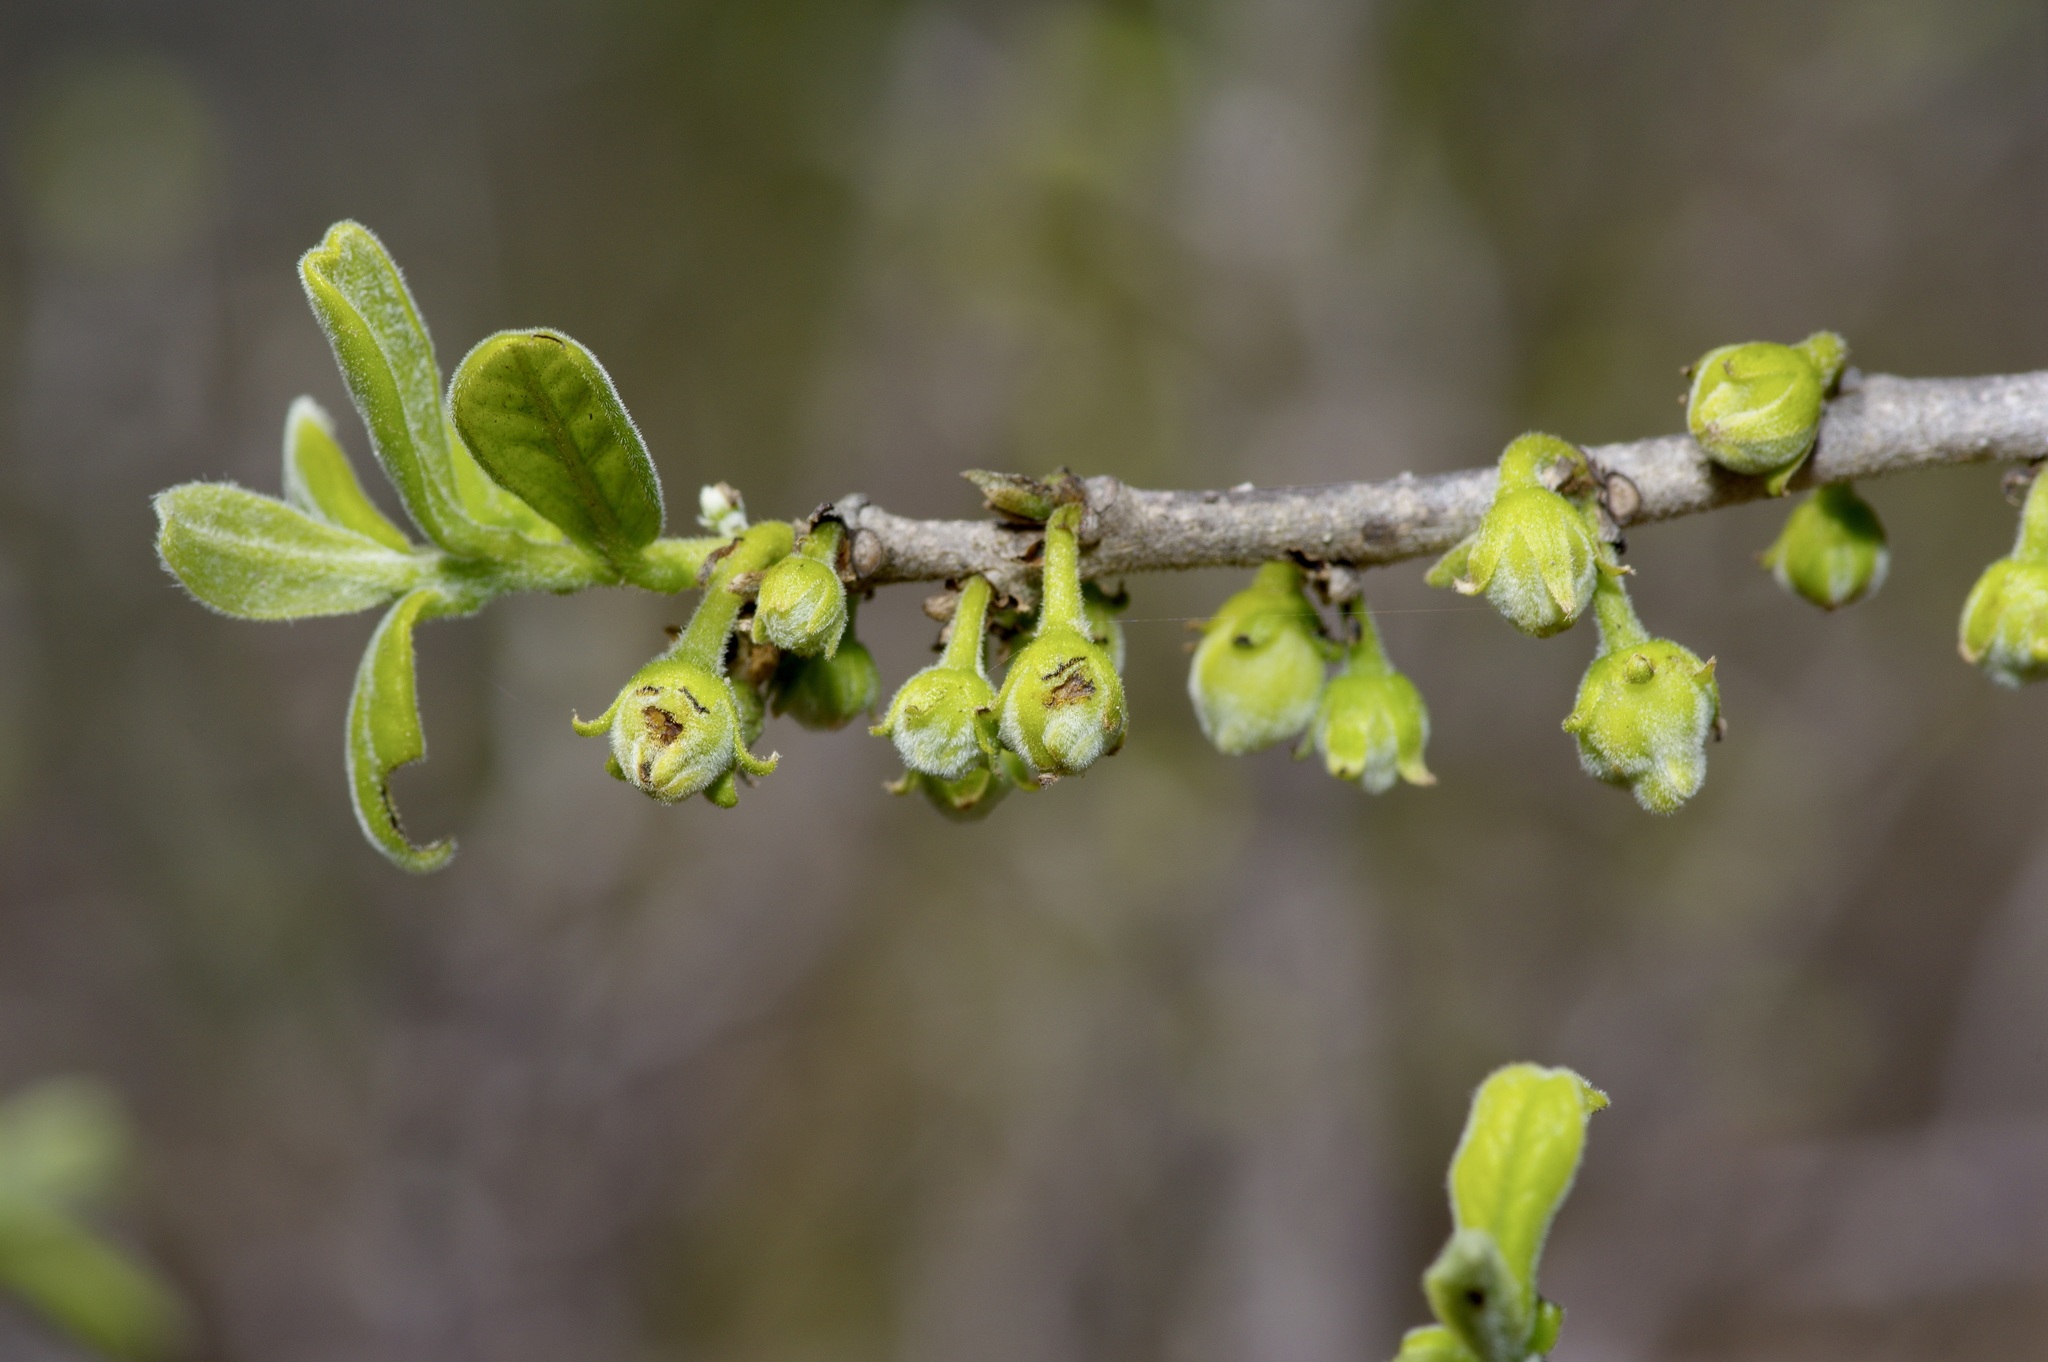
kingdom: Plantae
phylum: Tracheophyta
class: Magnoliopsida
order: Ericales
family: Ebenaceae
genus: Diospyros
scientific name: Diospyros texana
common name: Texas persimmon
